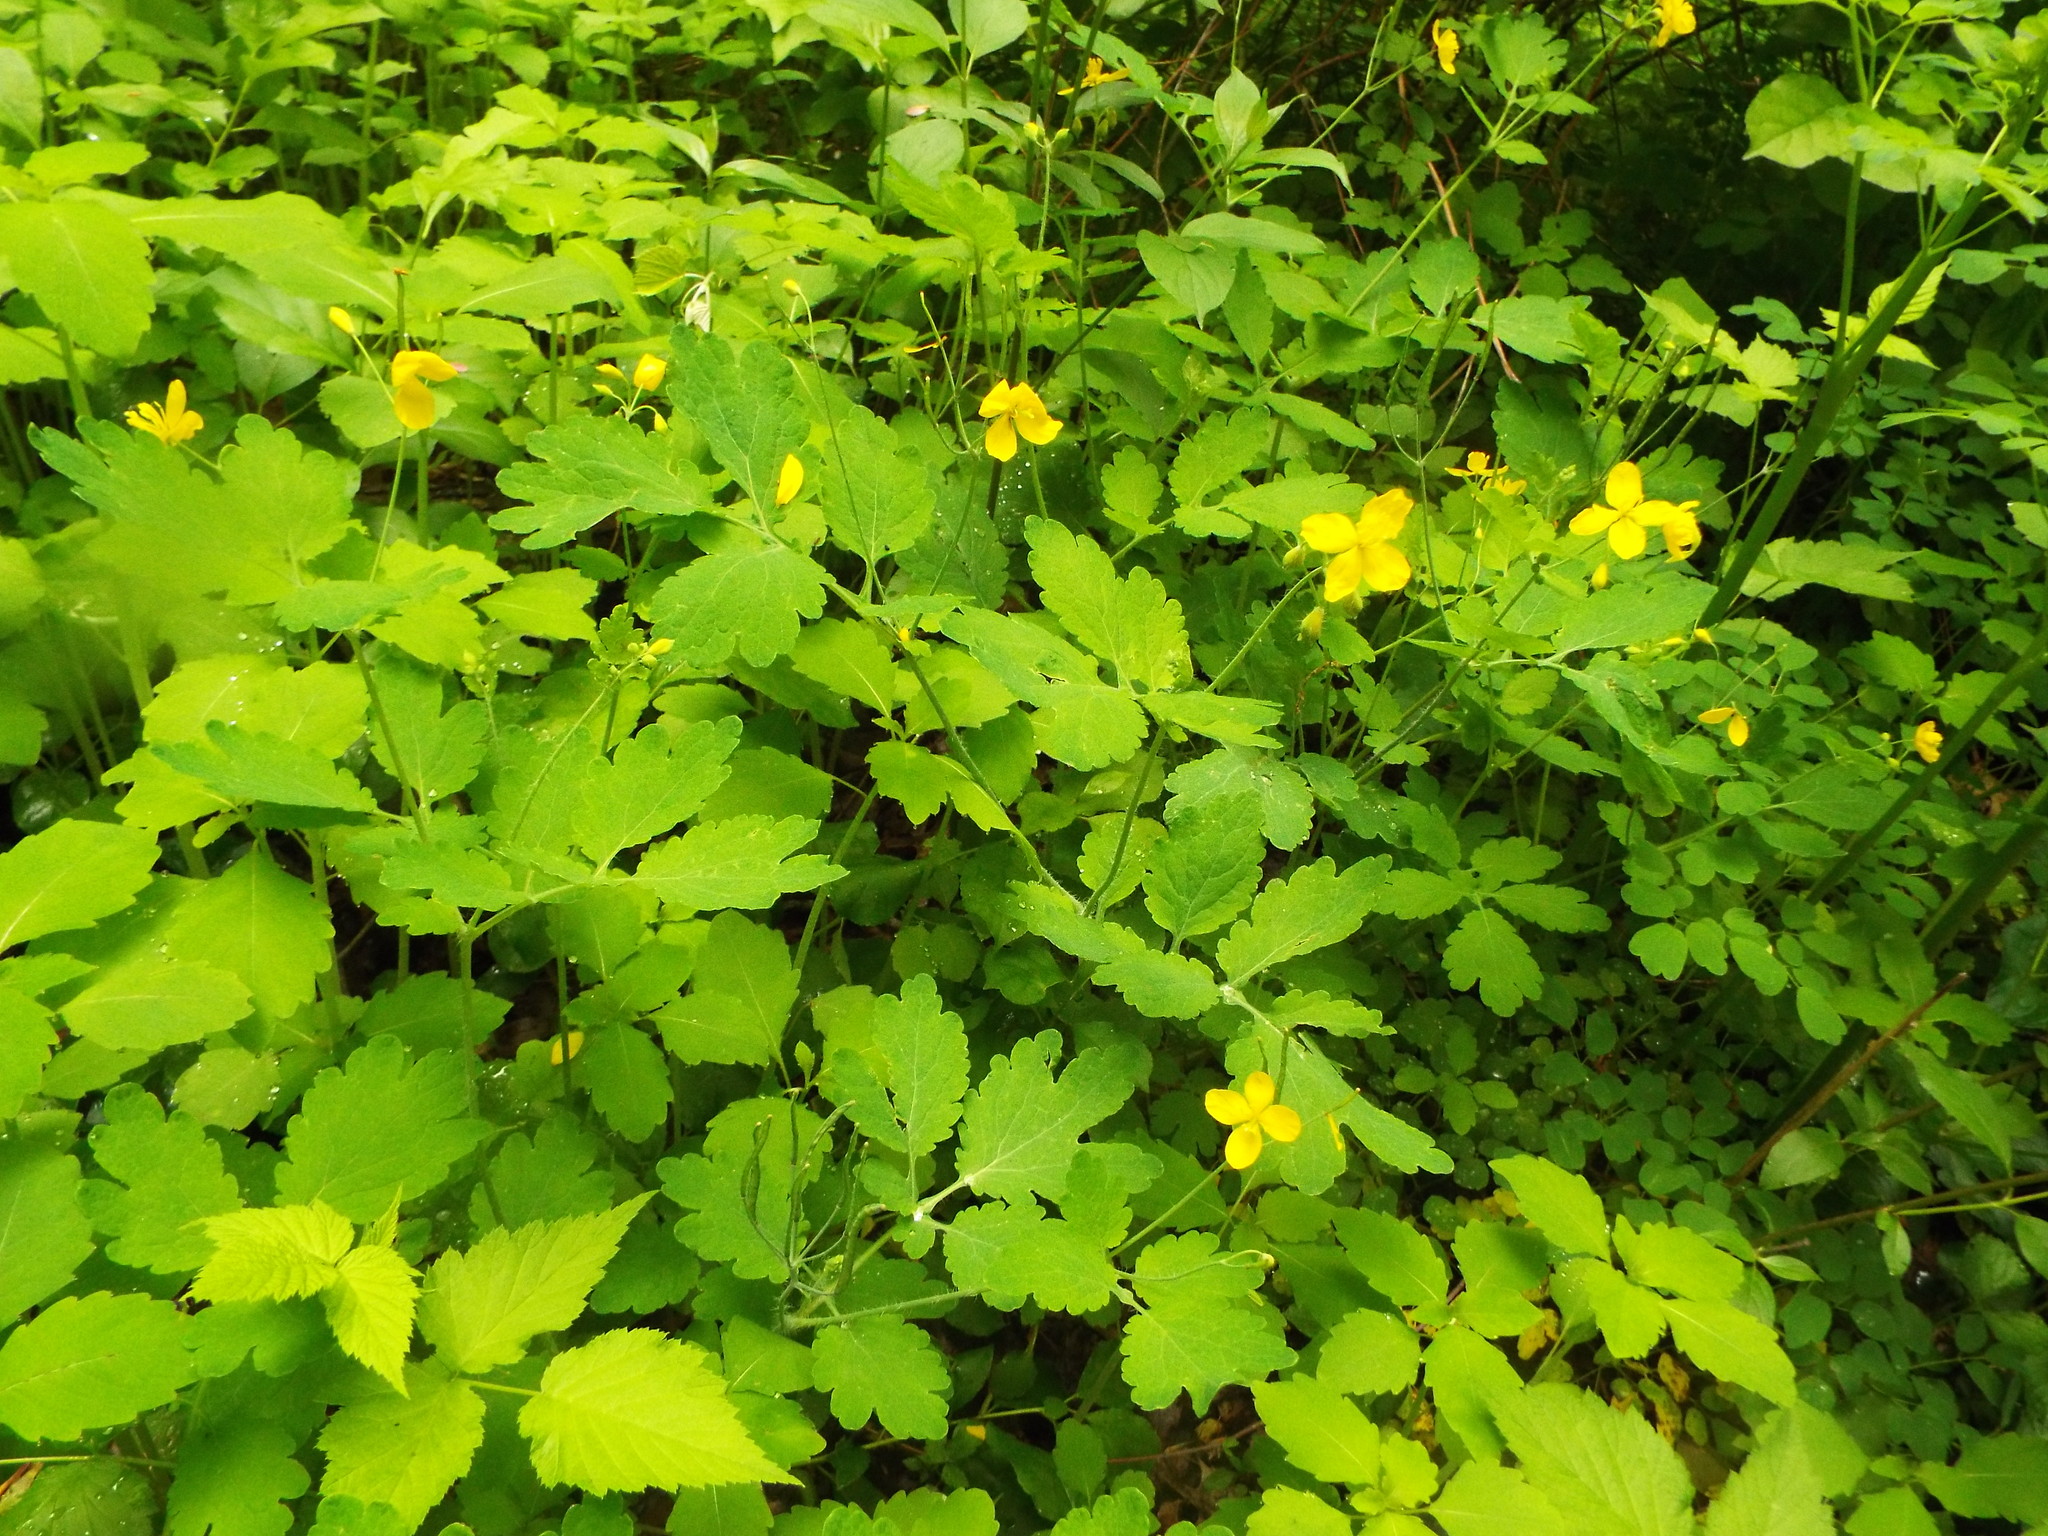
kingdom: Plantae
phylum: Tracheophyta
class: Magnoliopsida
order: Ranunculales
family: Papaveraceae
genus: Chelidonium
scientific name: Chelidonium majus
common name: Greater celandine
